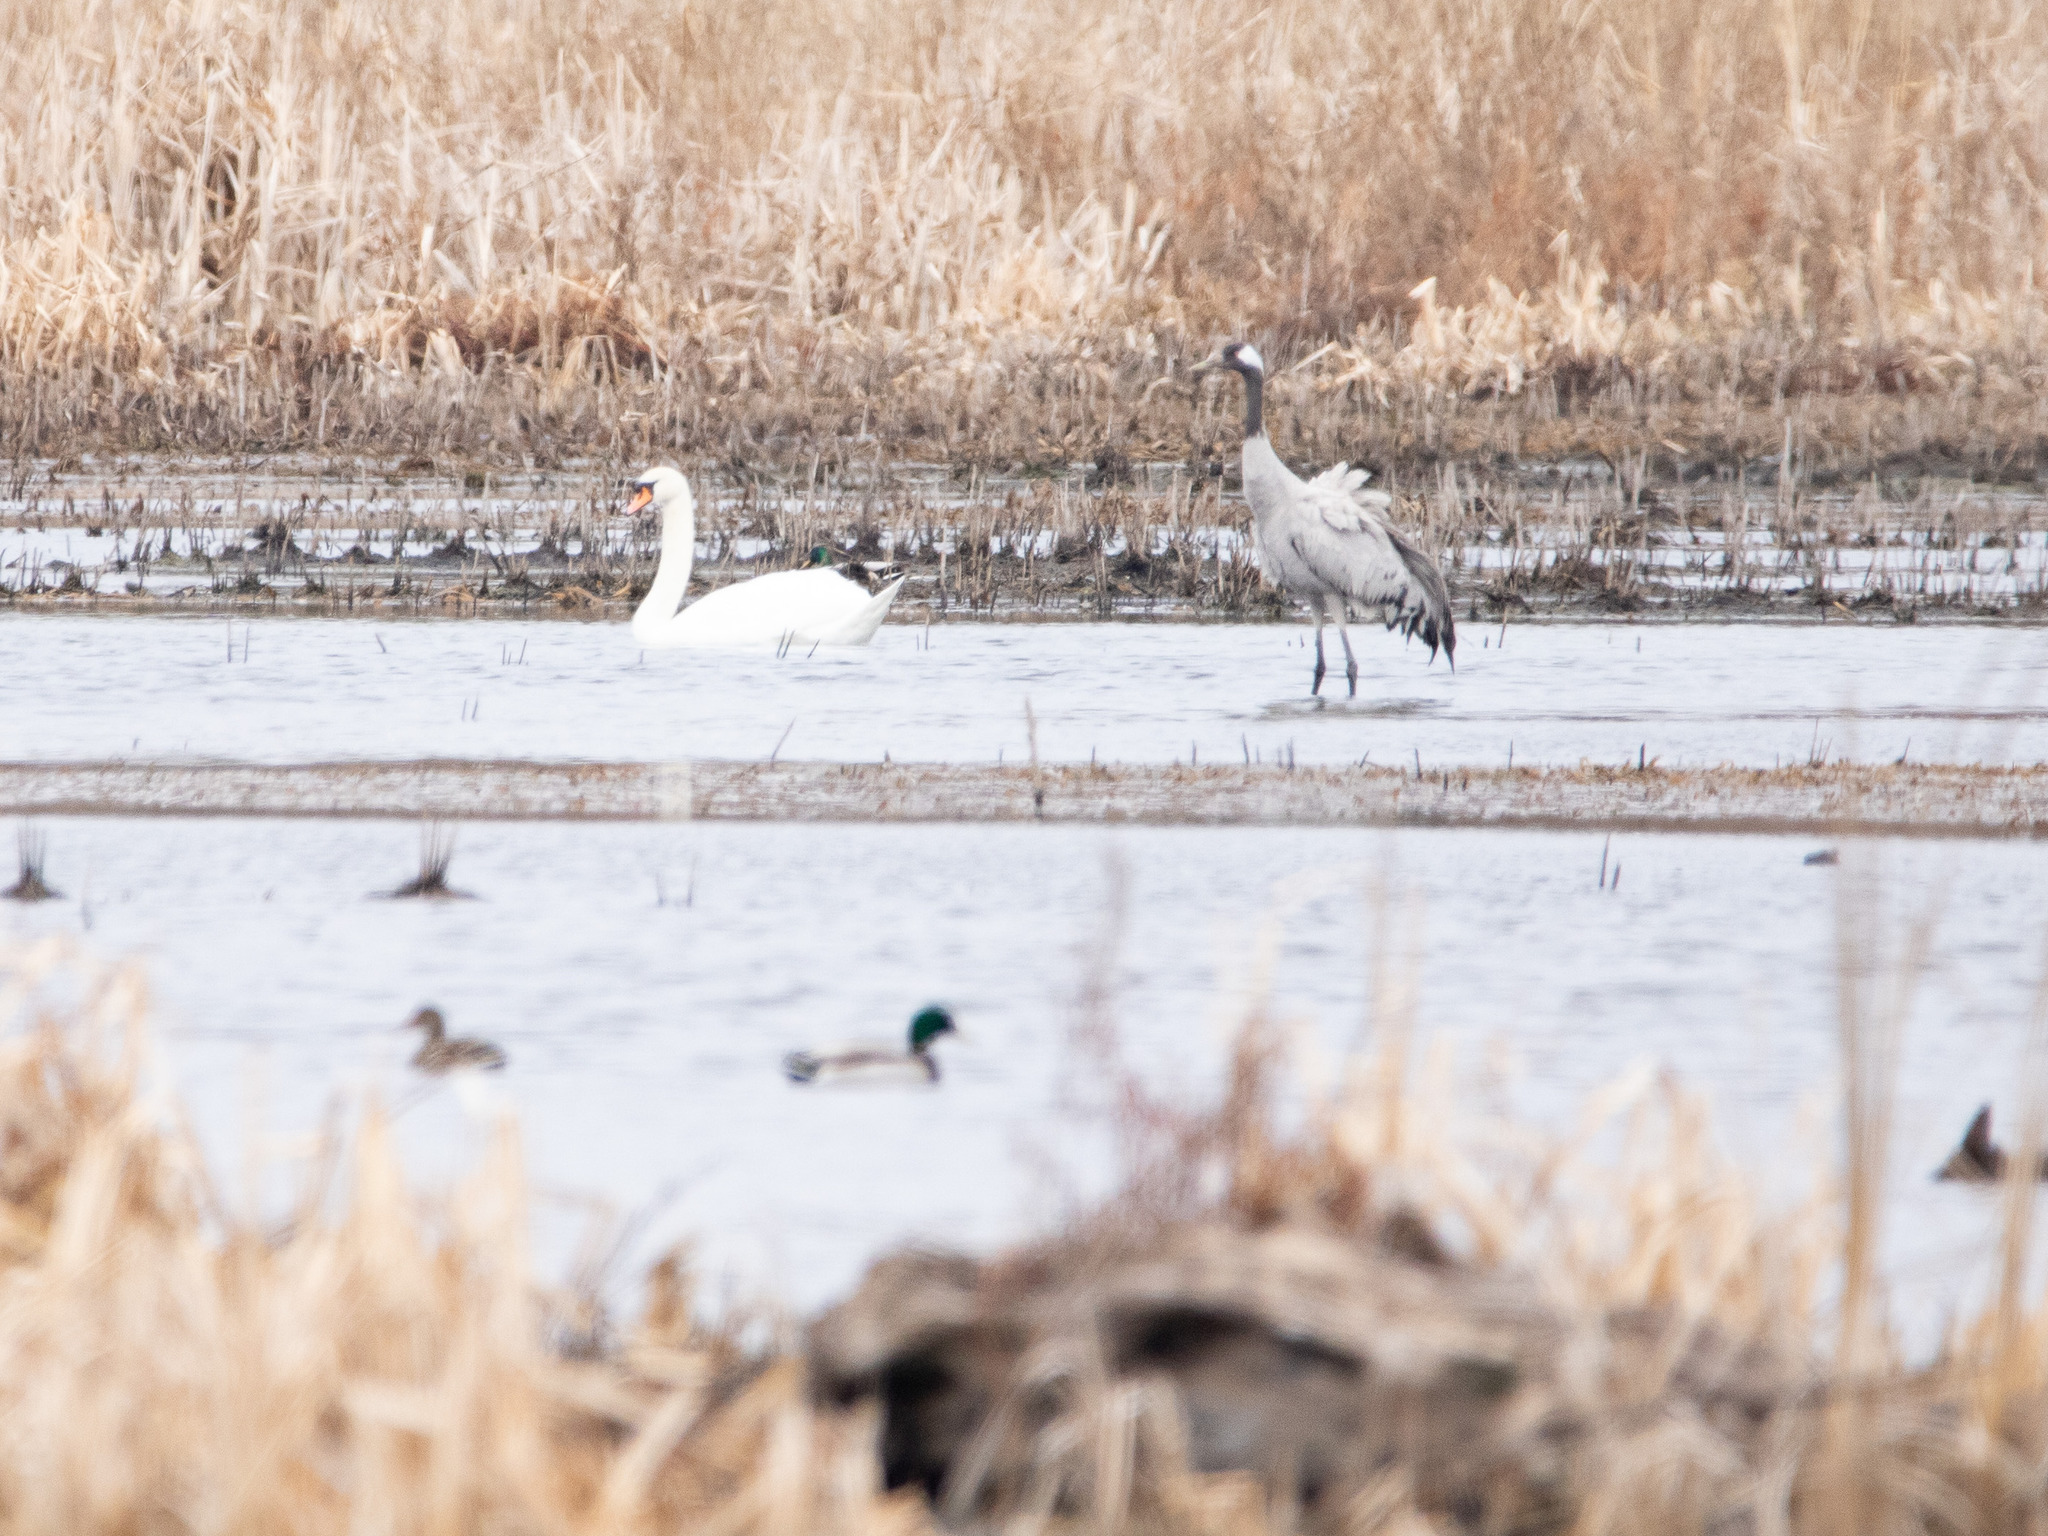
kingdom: Animalia
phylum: Chordata
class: Aves
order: Gruiformes
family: Gruidae
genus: Grus
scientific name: Grus grus
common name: Common crane
